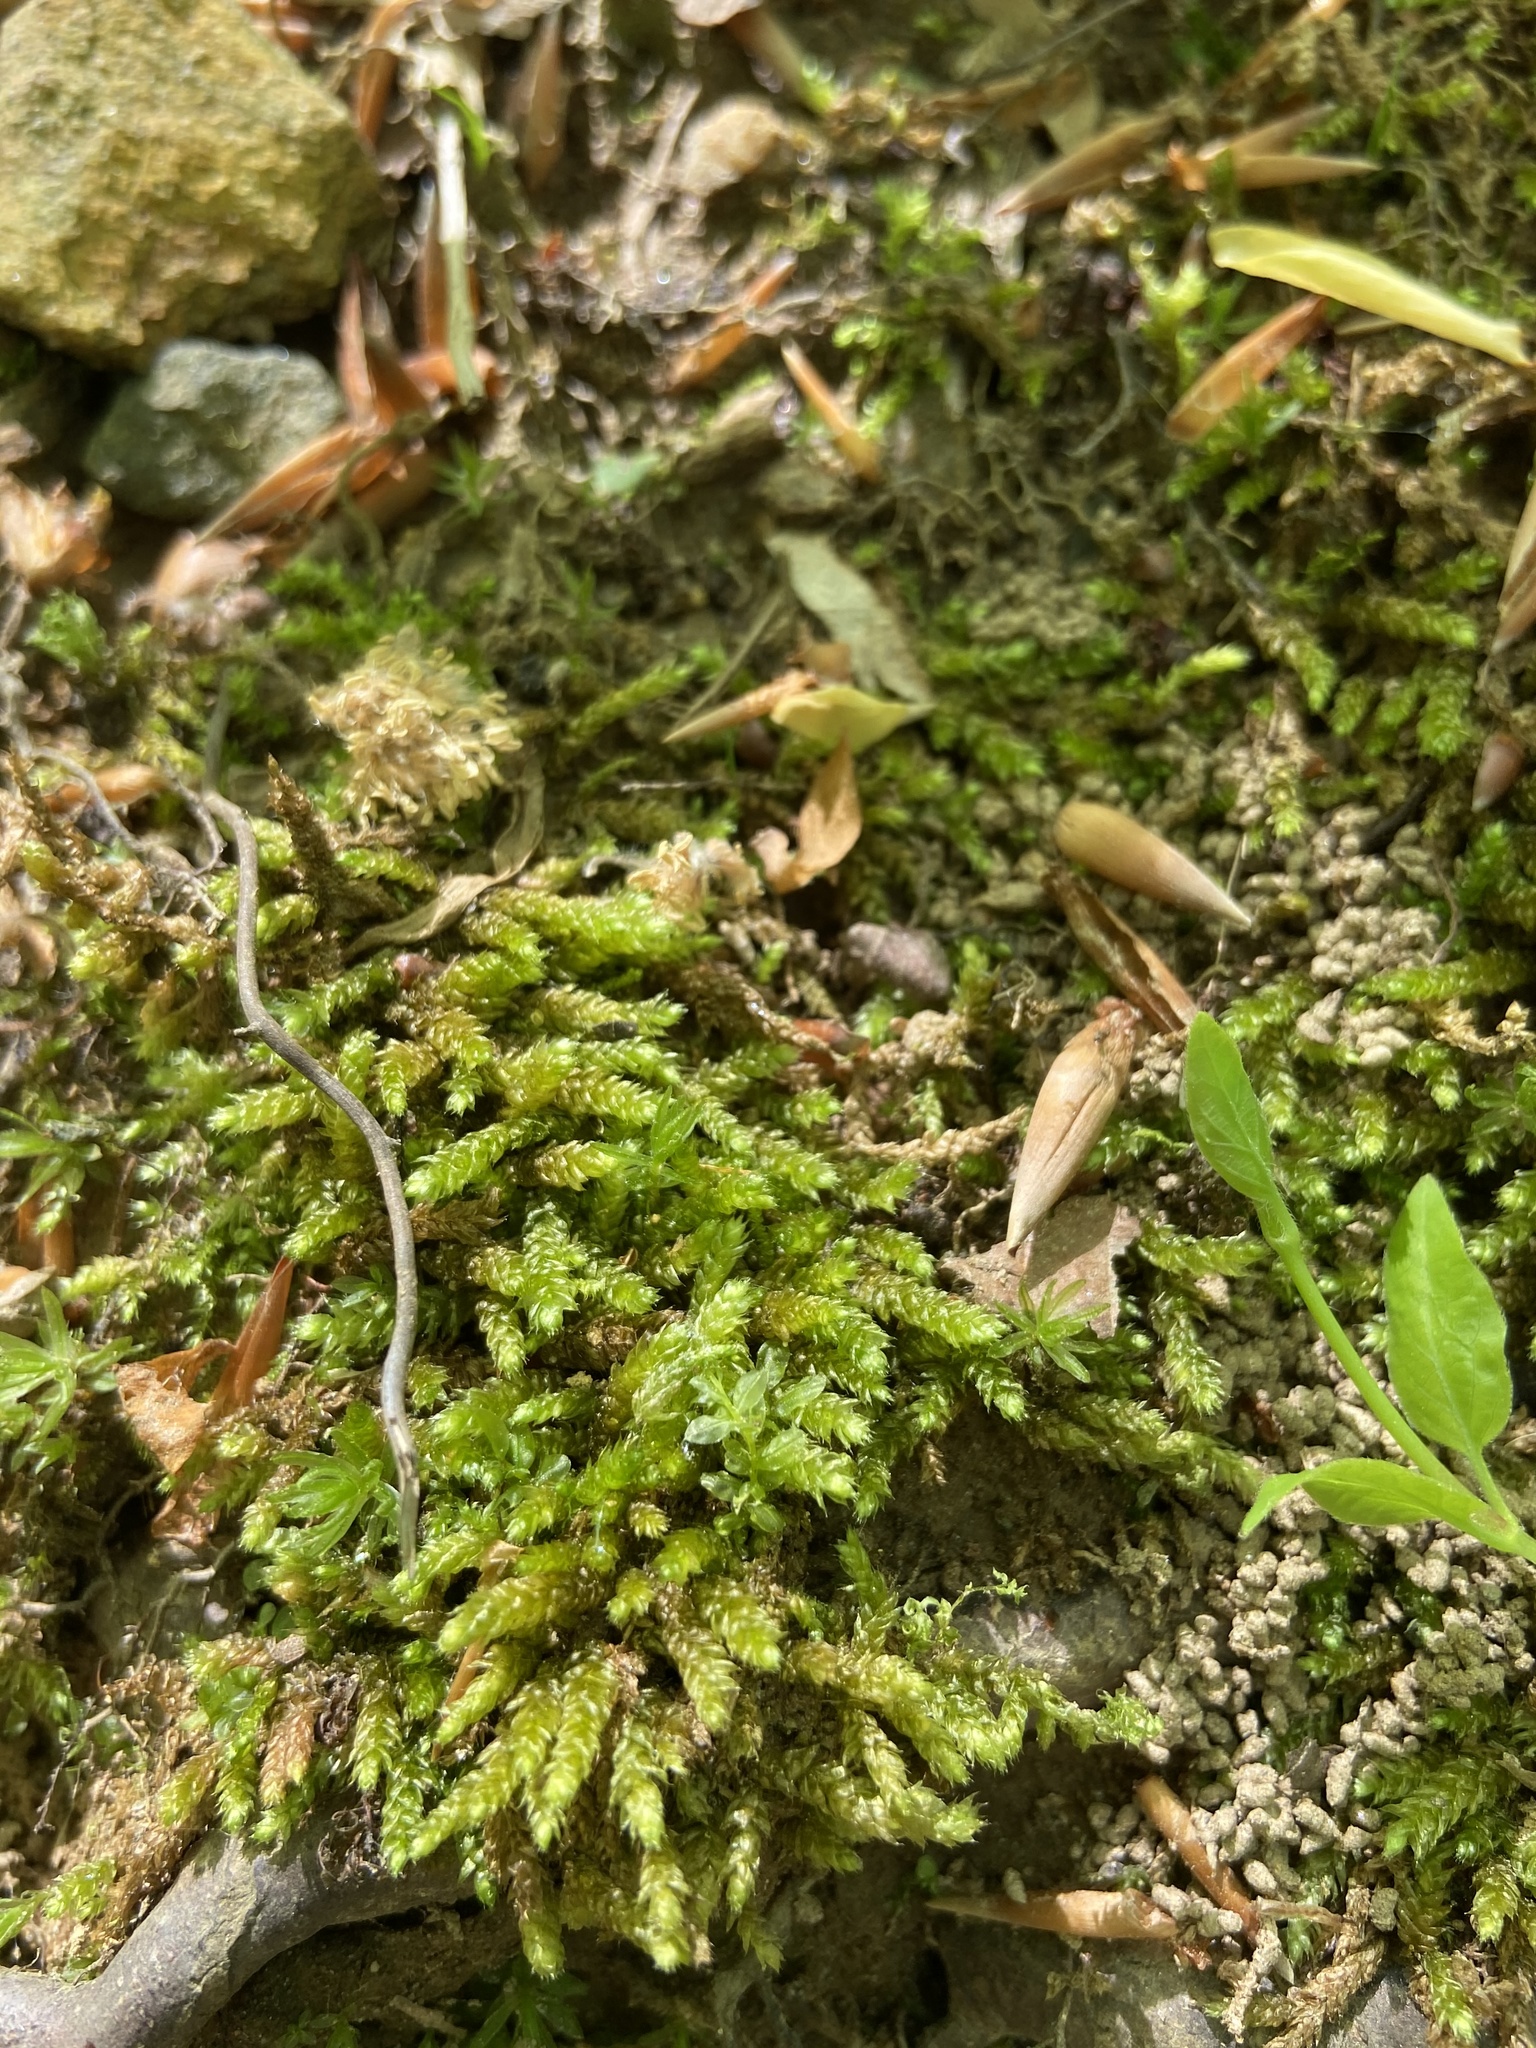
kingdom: Plantae
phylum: Bryophyta
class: Bryopsida
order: Hypnales
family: Brachytheciaceae
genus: Bryoandersonia
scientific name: Bryoandersonia illecebra
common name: Spoon-leaved moss
